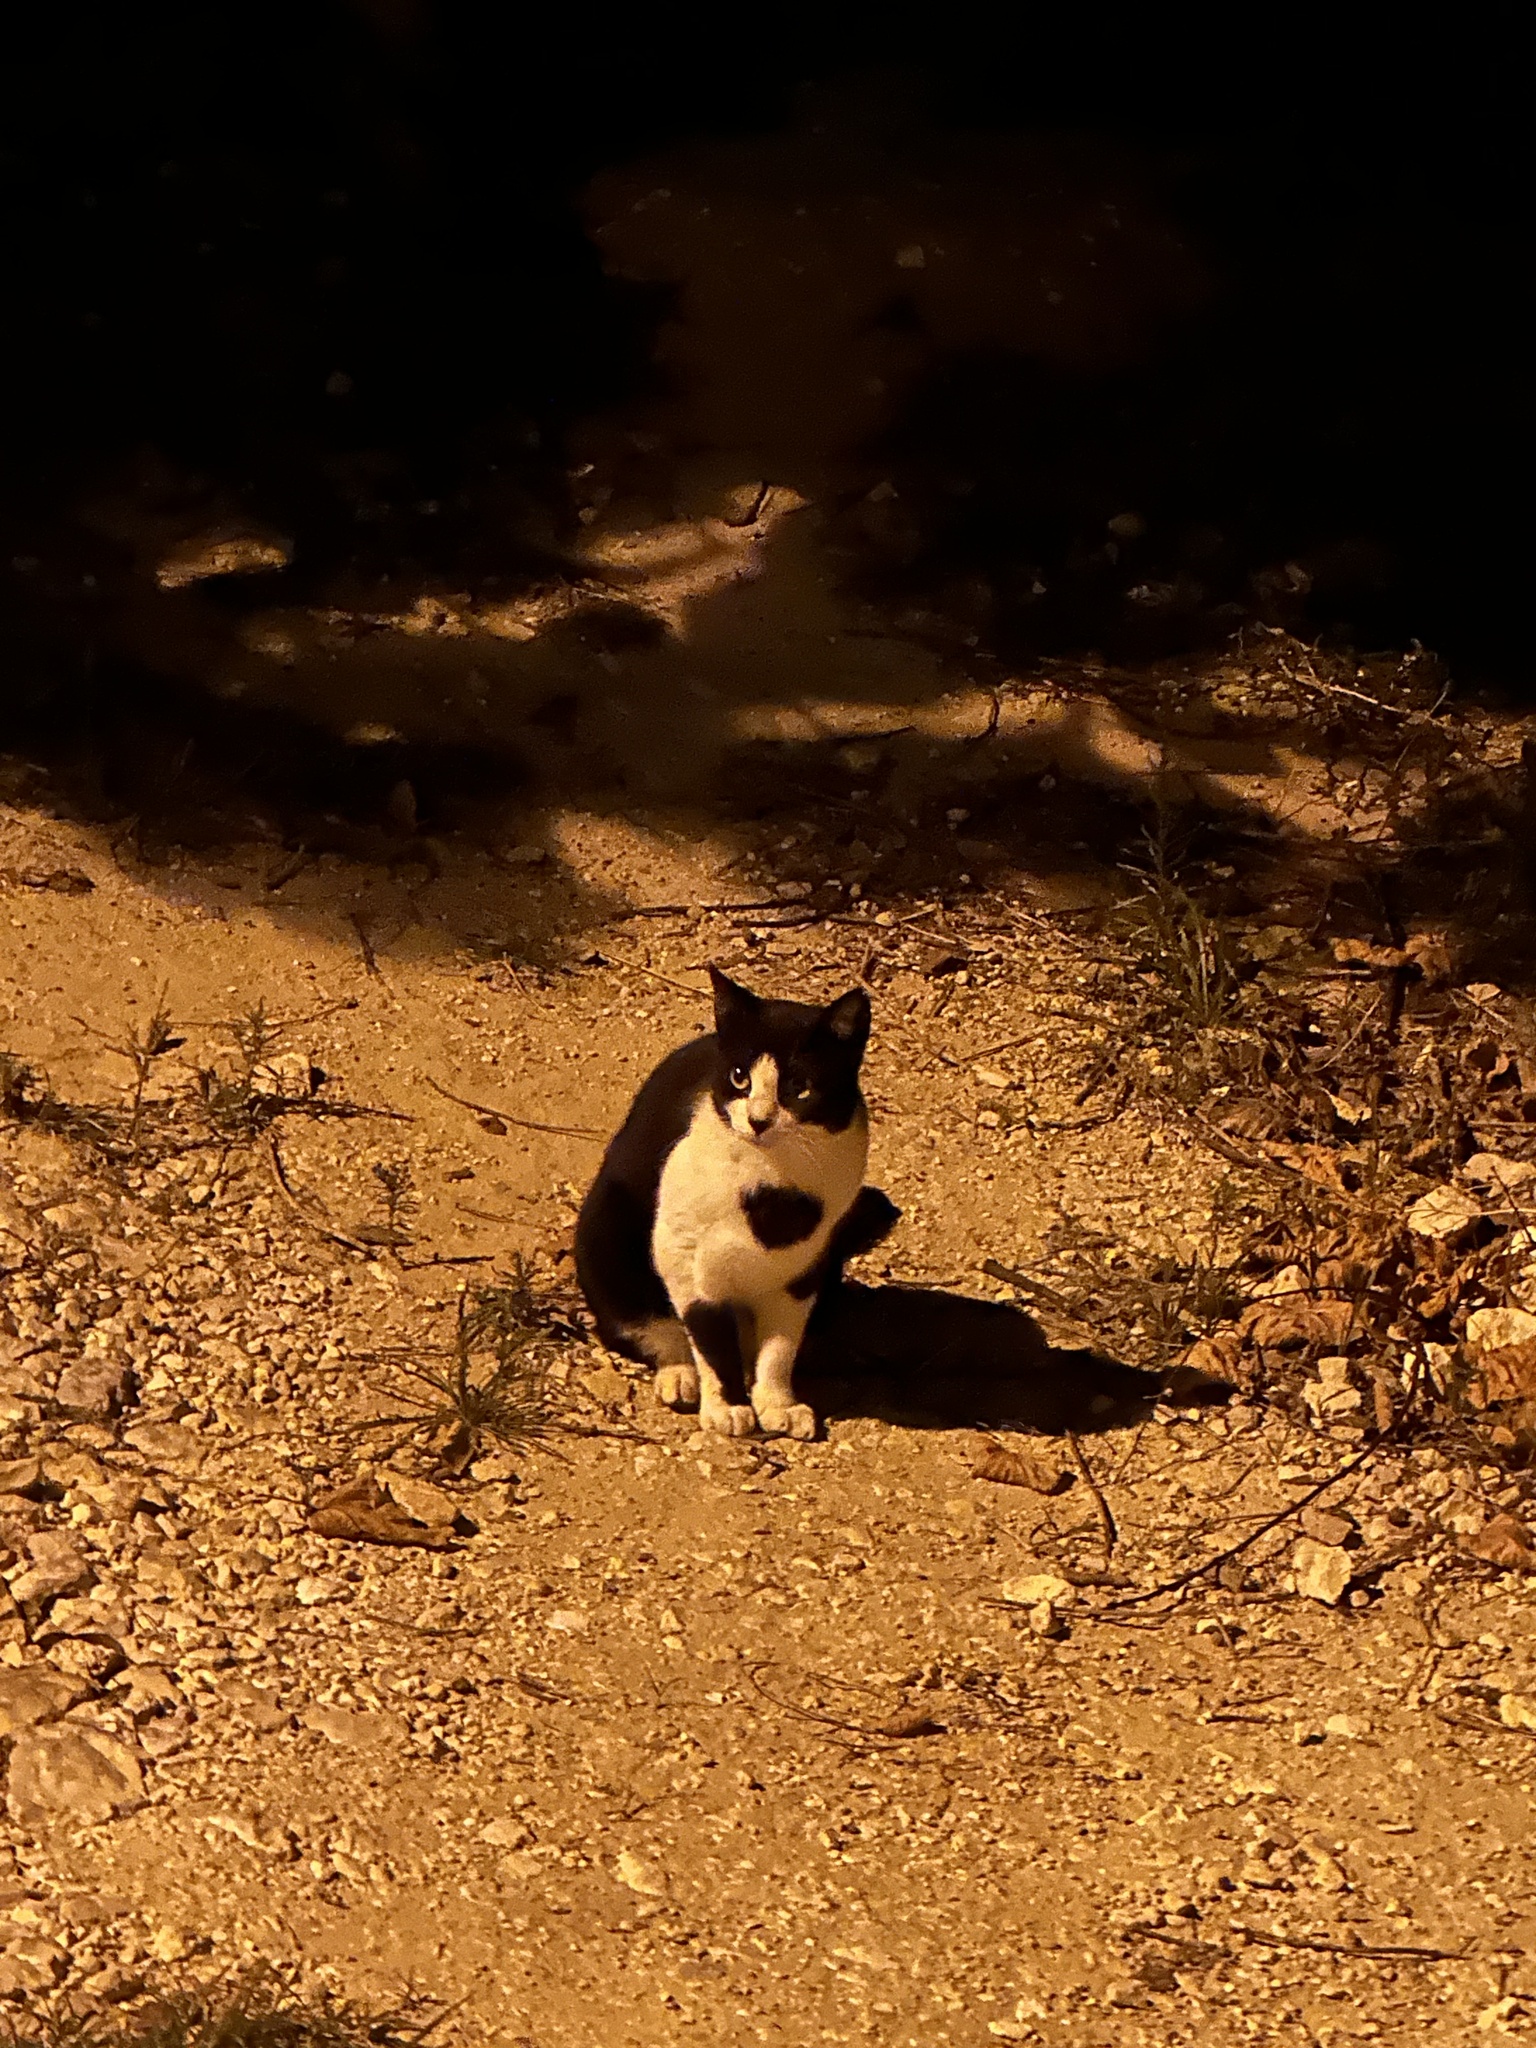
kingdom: Animalia
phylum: Chordata
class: Mammalia
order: Carnivora
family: Felidae
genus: Felis
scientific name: Felis catus
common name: Domestic cat
